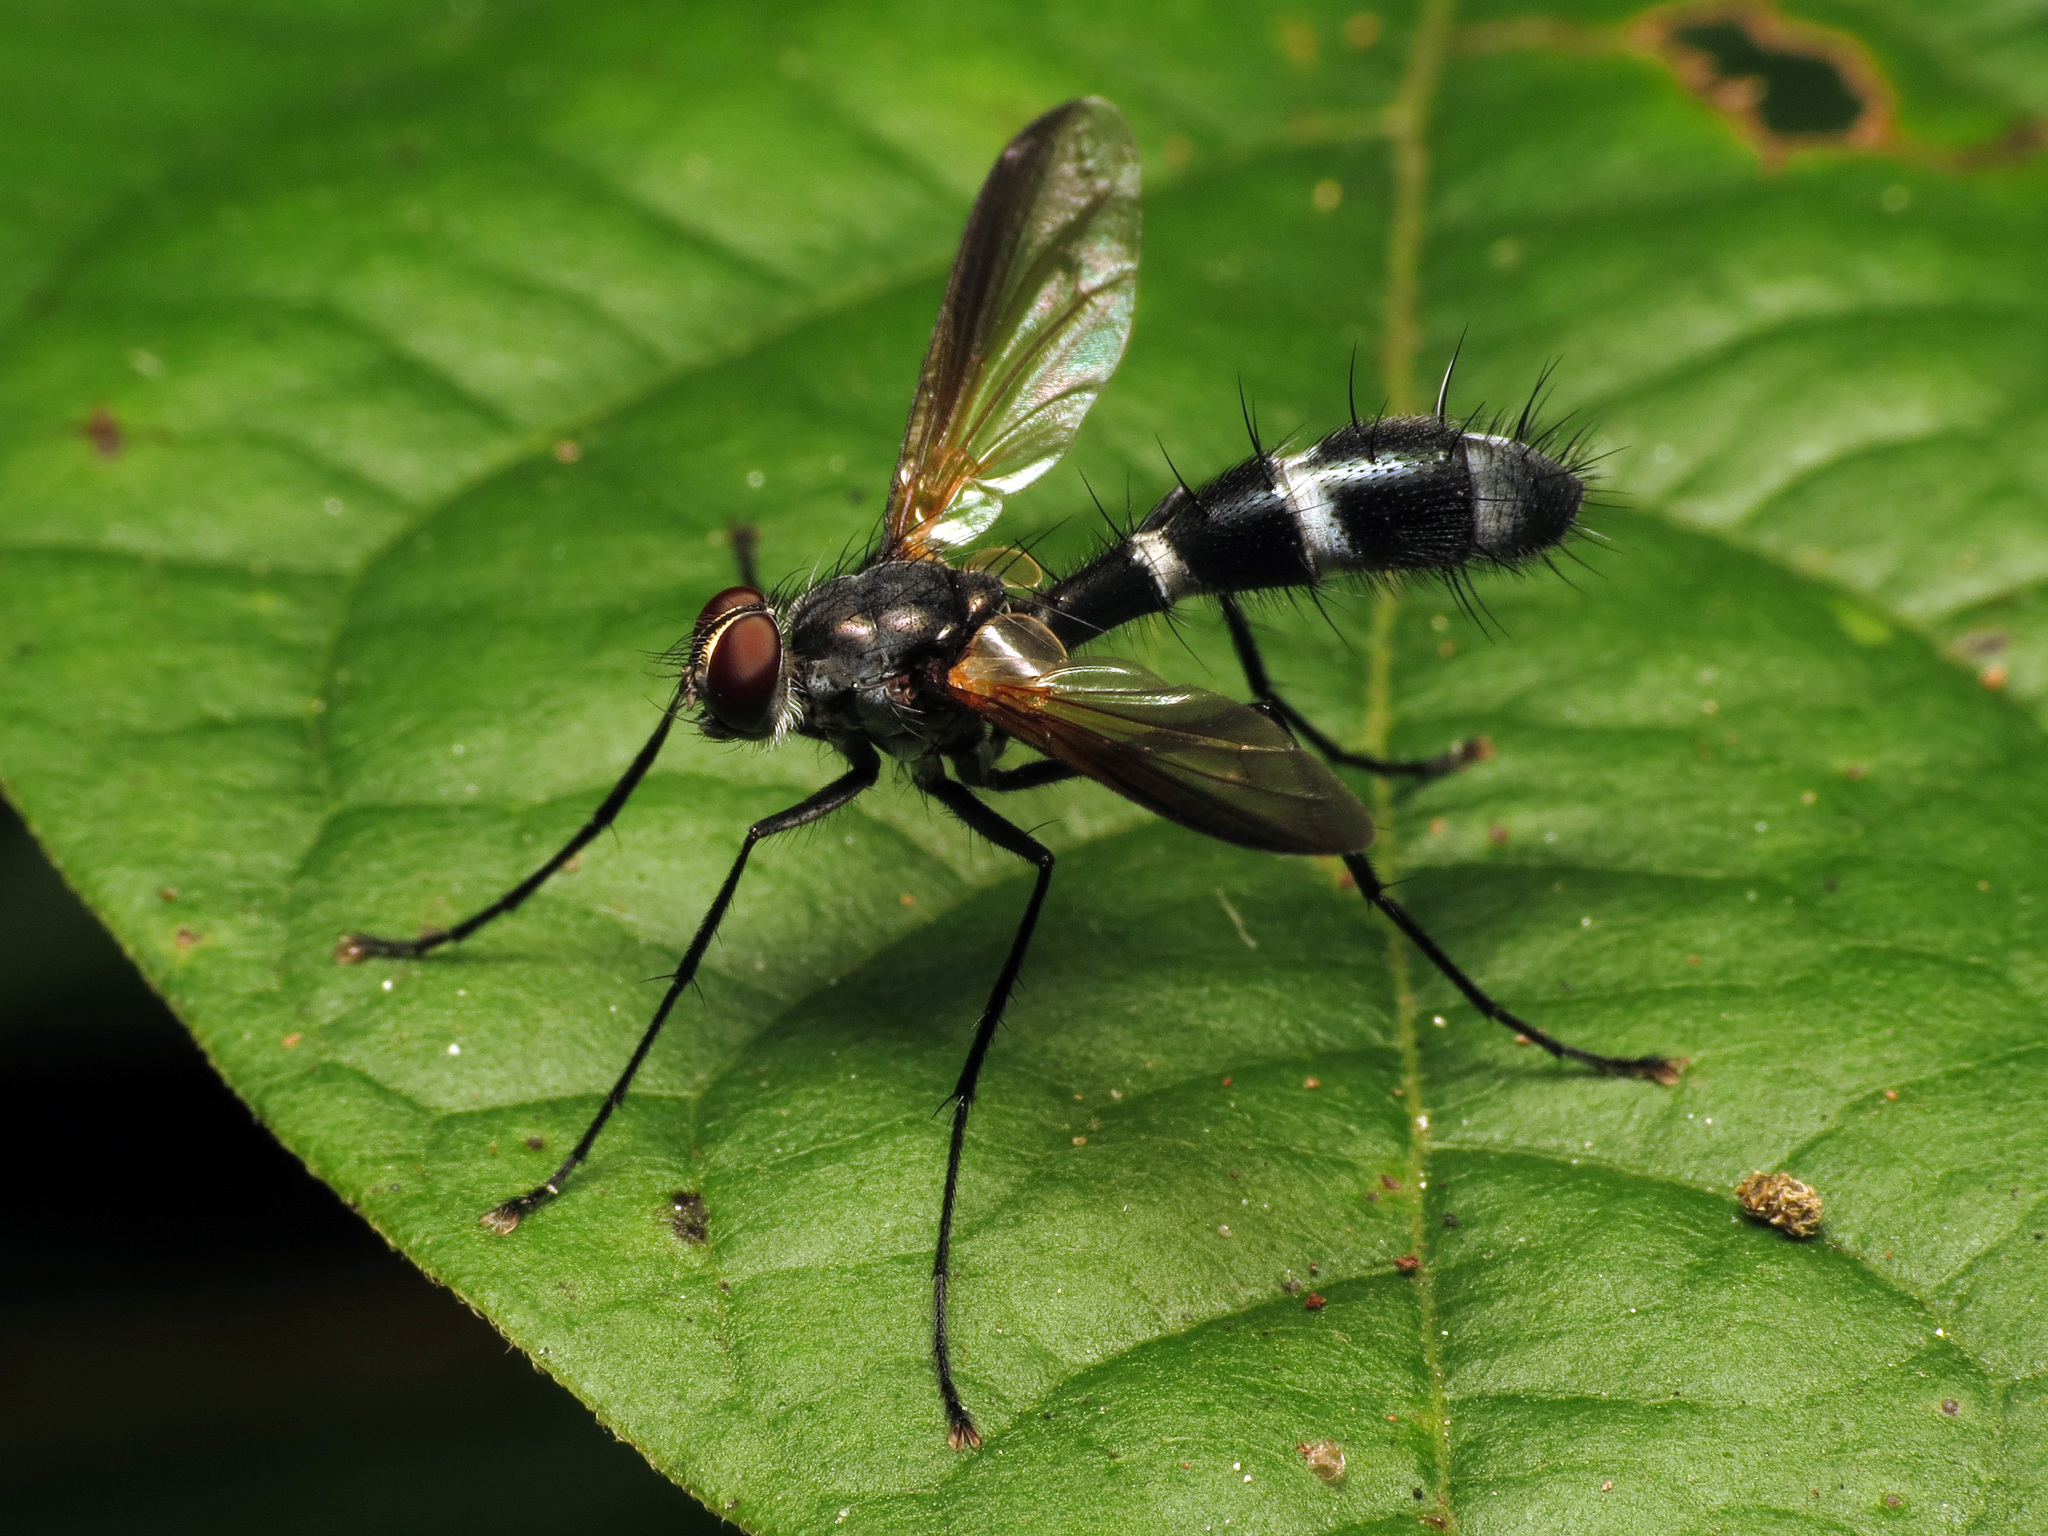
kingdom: Animalia
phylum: Arthropoda
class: Insecta
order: Diptera
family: Tachinidae
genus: Cordyligaster
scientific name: Cordyligaster septentrionalis
